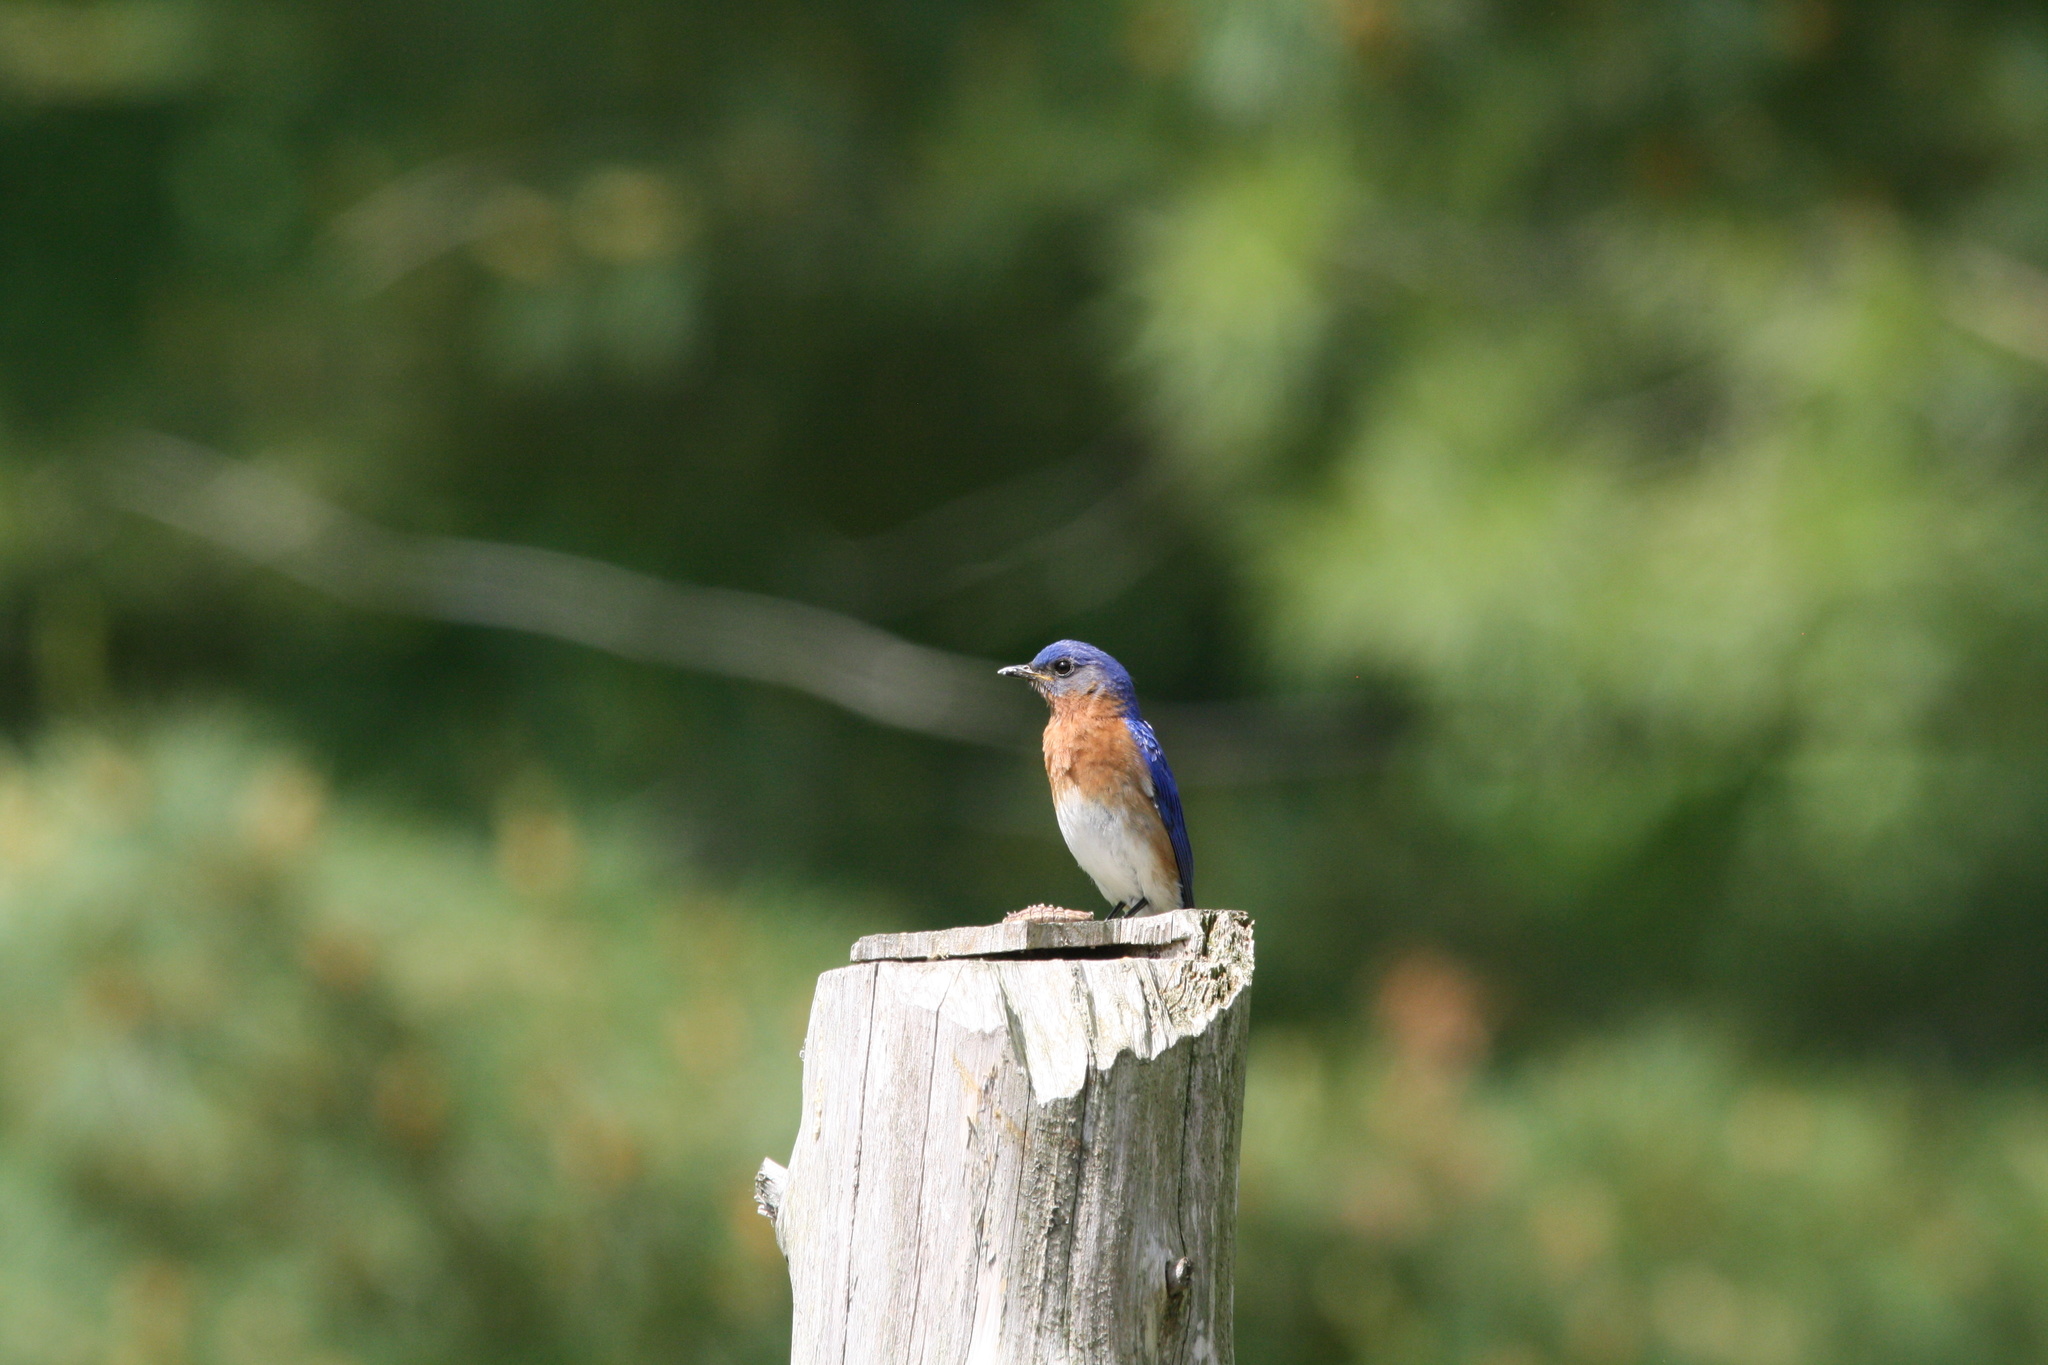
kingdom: Animalia
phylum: Chordata
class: Aves
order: Passeriformes
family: Turdidae
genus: Sialia
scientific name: Sialia sialis
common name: Eastern bluebird
